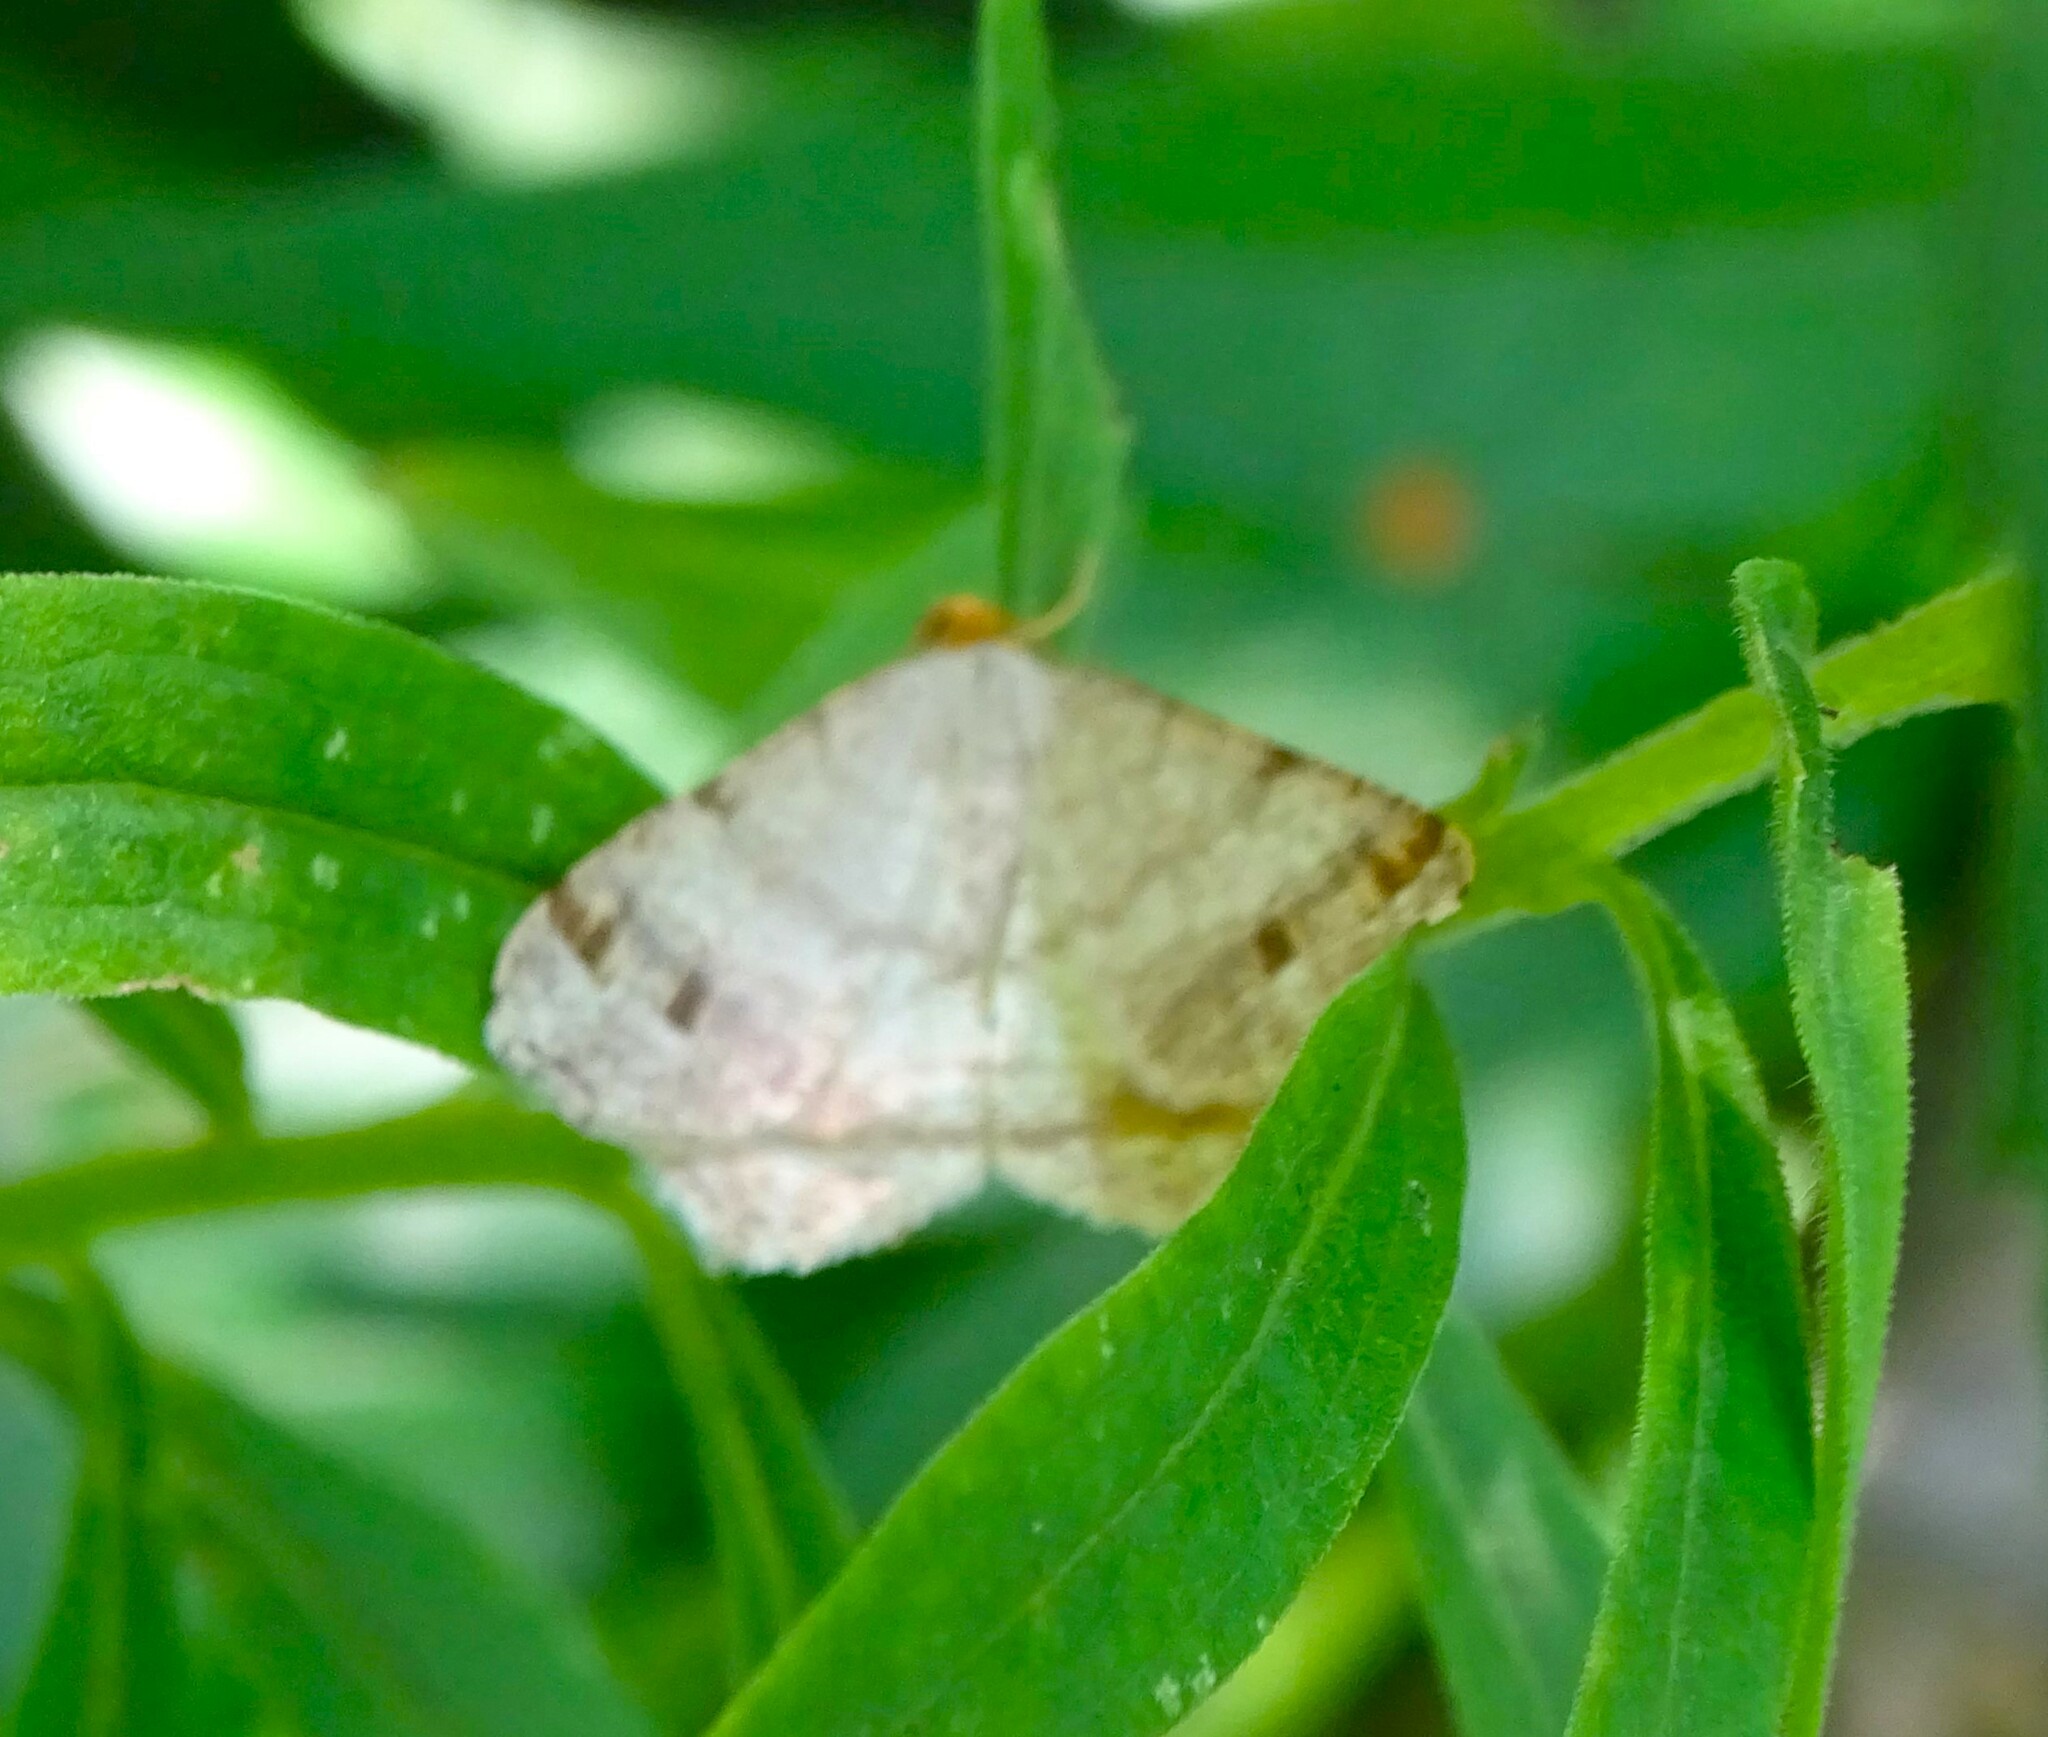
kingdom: Animalia
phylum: Arthropoda
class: Insecta
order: Lepidoptera
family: Geometridae
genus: Macaria
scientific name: Macaria bisignata
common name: Red-headed inchworm
